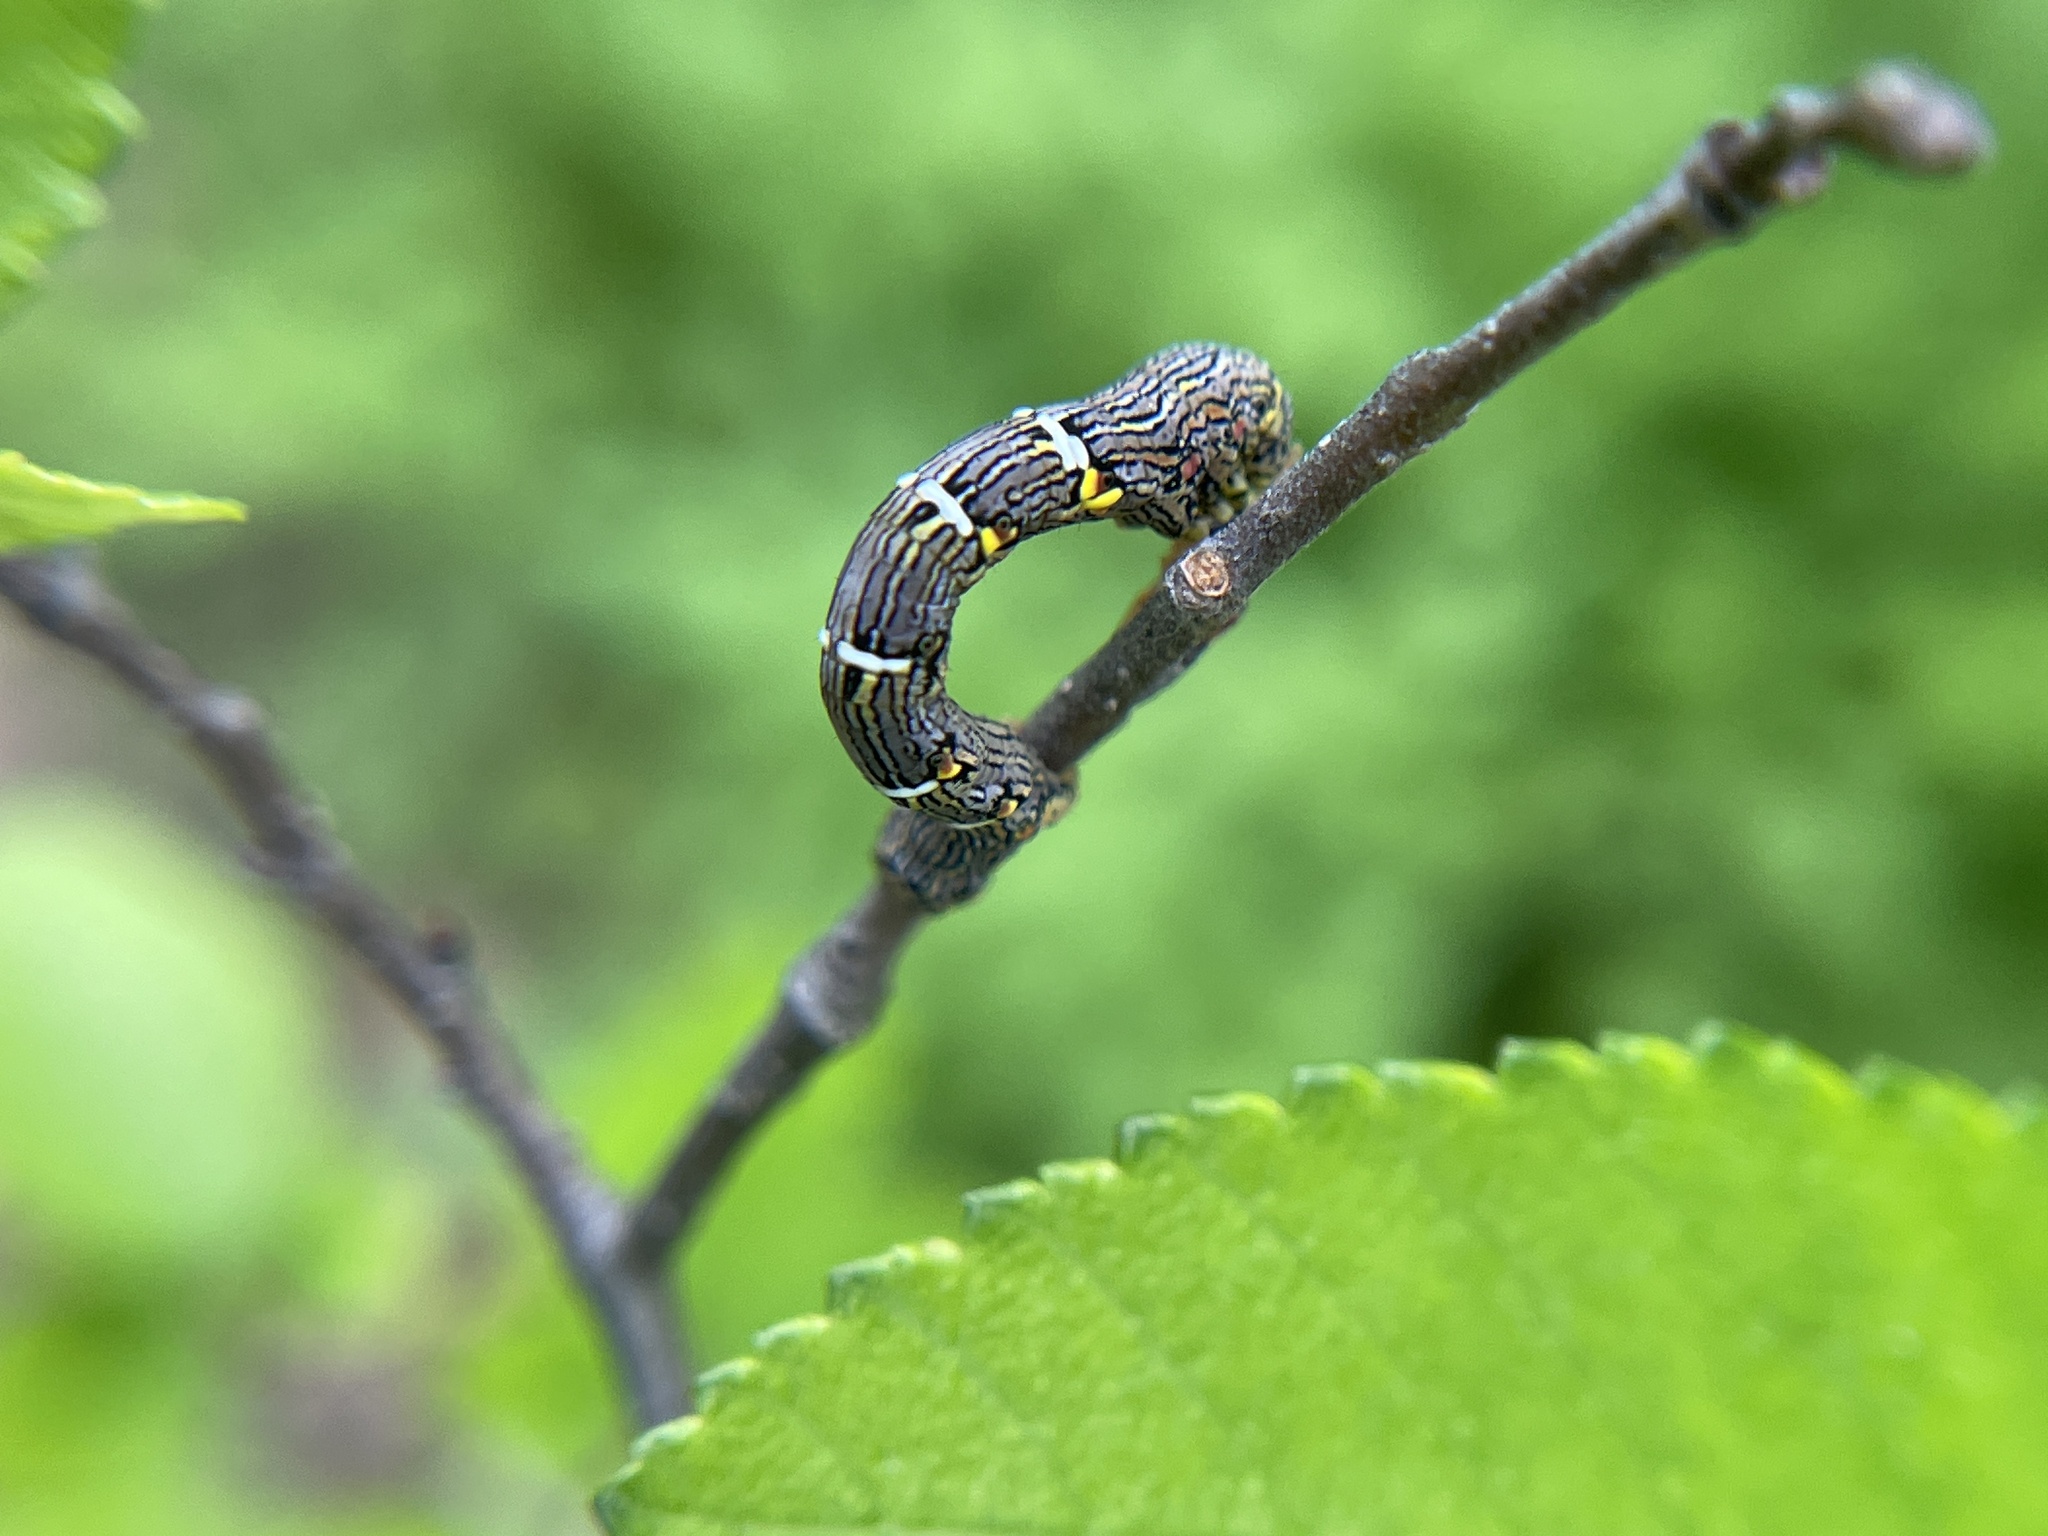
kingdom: Animalia
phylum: Arthropoda
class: Insecta
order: Lepidoptera
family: Geometridae
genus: Lycia
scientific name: Lycia ypsilon
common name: Wooly gray
